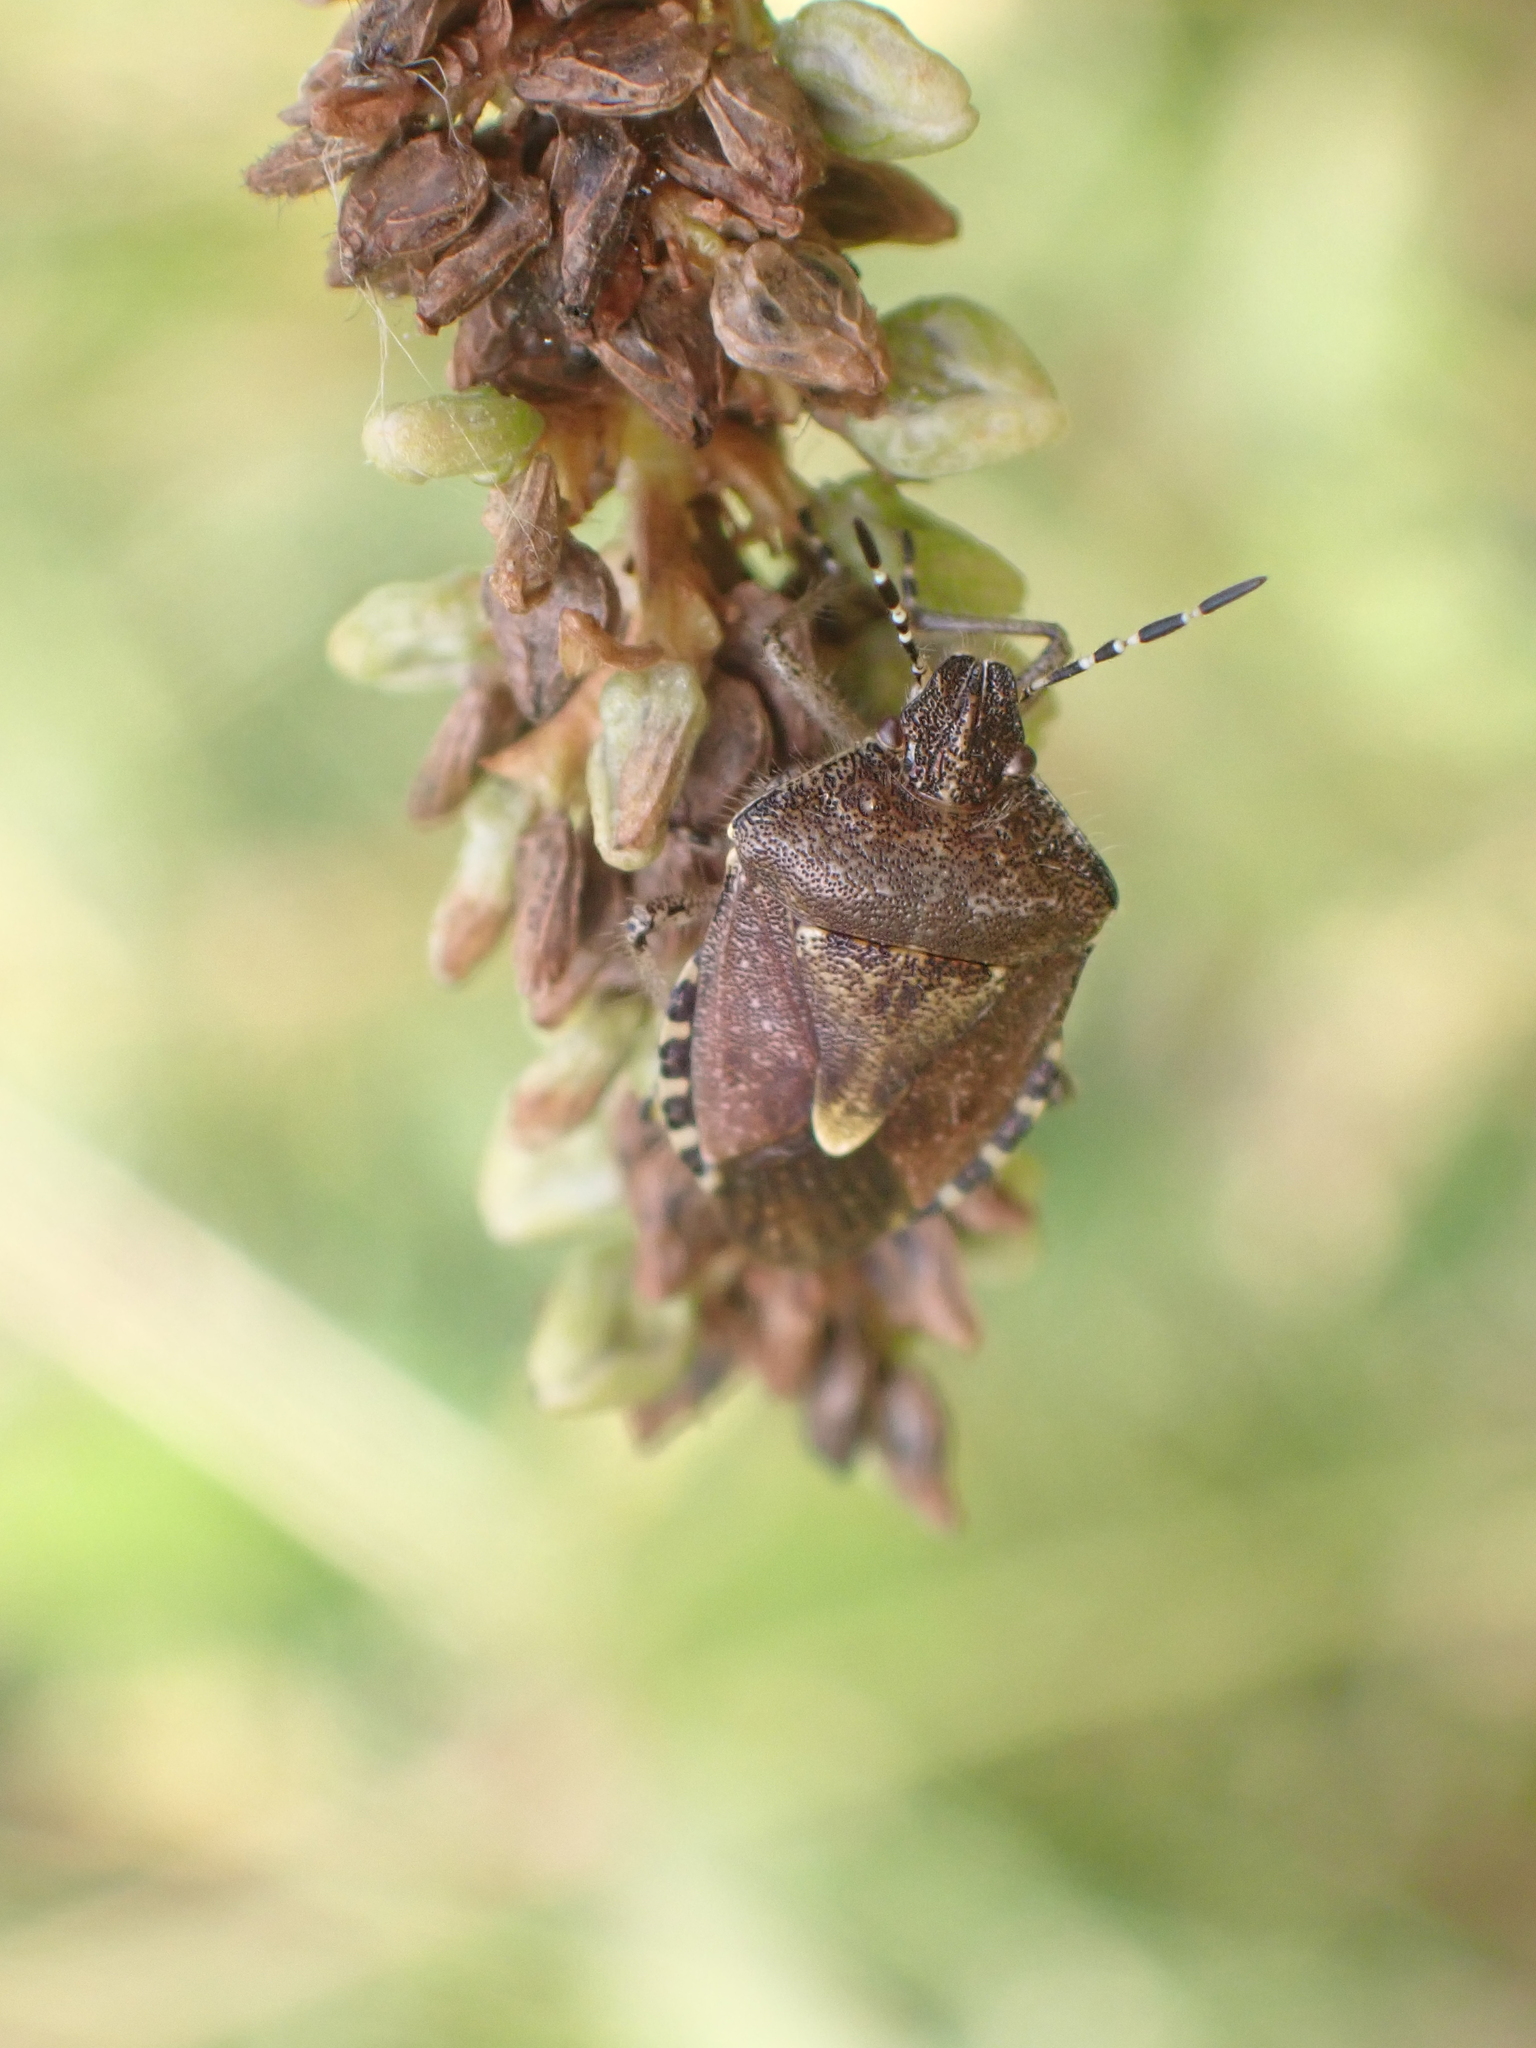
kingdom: Animalia
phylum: Arthropoda
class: Insecta
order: Hemiptera
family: Pentatomidae
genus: Dolycoris
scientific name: Dolycoris baccarum
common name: Sloe bug
